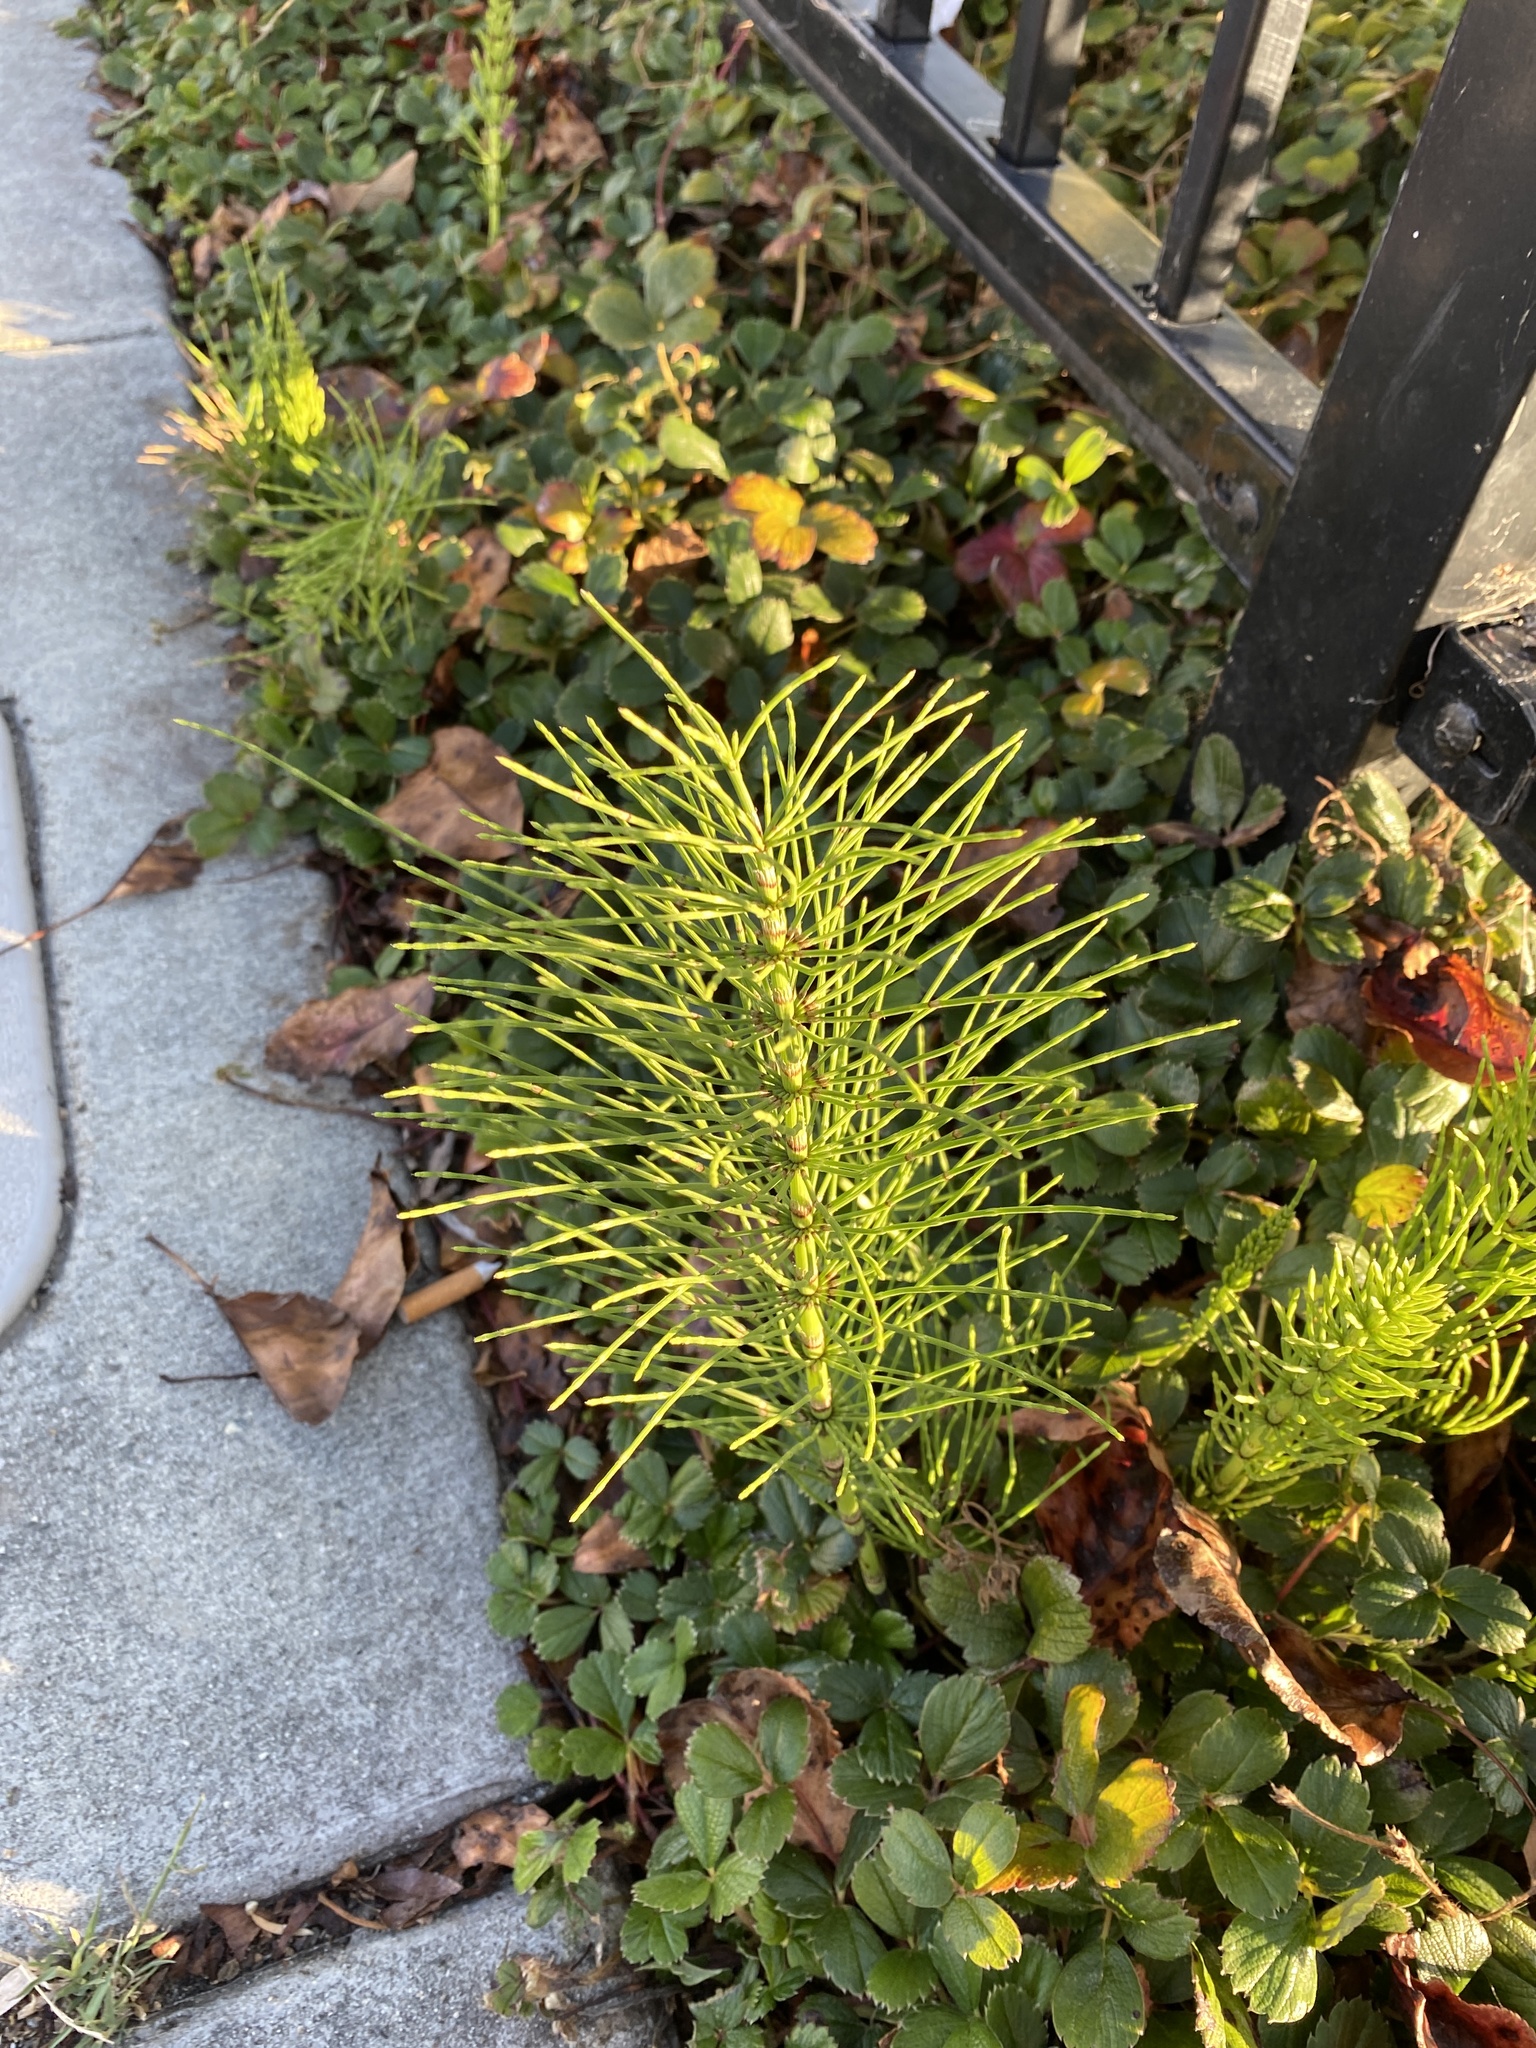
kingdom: Plantae
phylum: Tracheophyta
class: Polypodiopsida
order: Equisetales
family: Equisetaceae
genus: Equisetum
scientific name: Equisetum braunii
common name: Braun's horsetail
